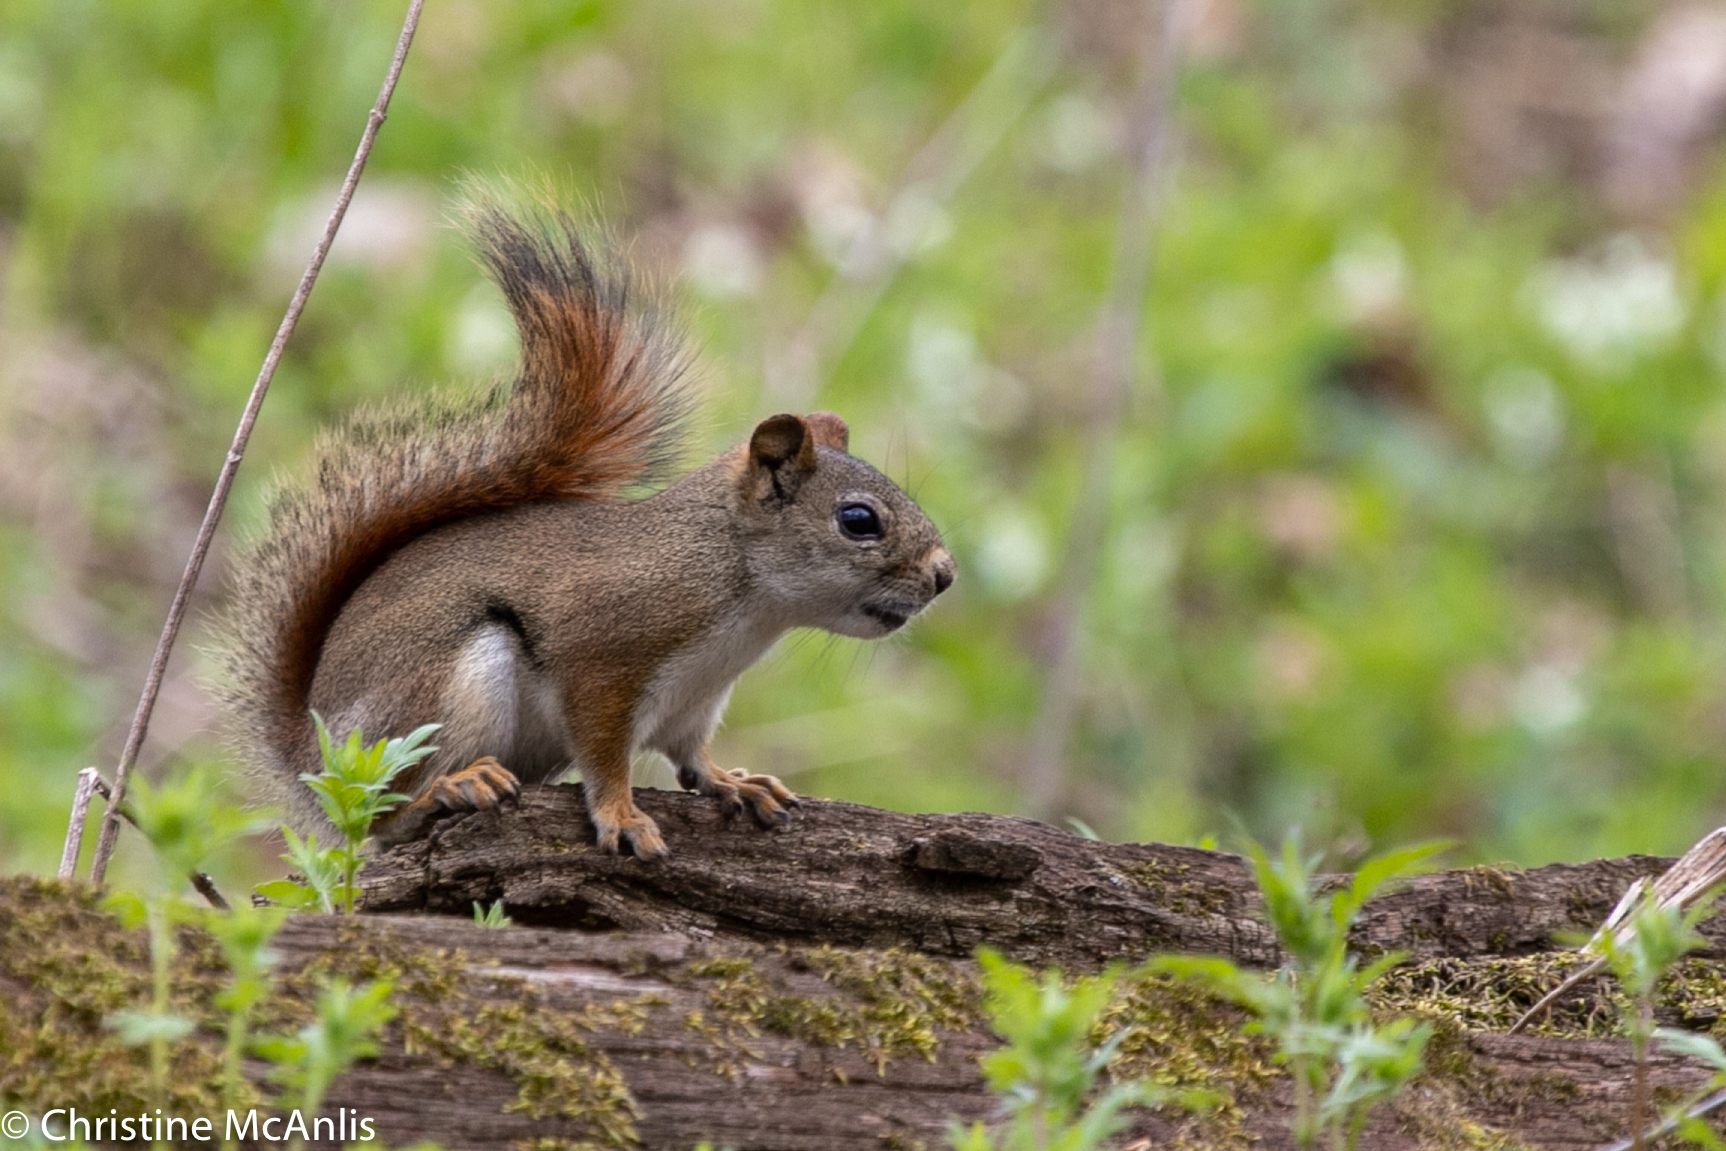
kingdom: Animalia
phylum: Chordata
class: Mammalia
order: Rodentia
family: Sciuridae
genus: Tamiasciurus
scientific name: Tamiasciurus hudsonicus
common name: Red squirrel
